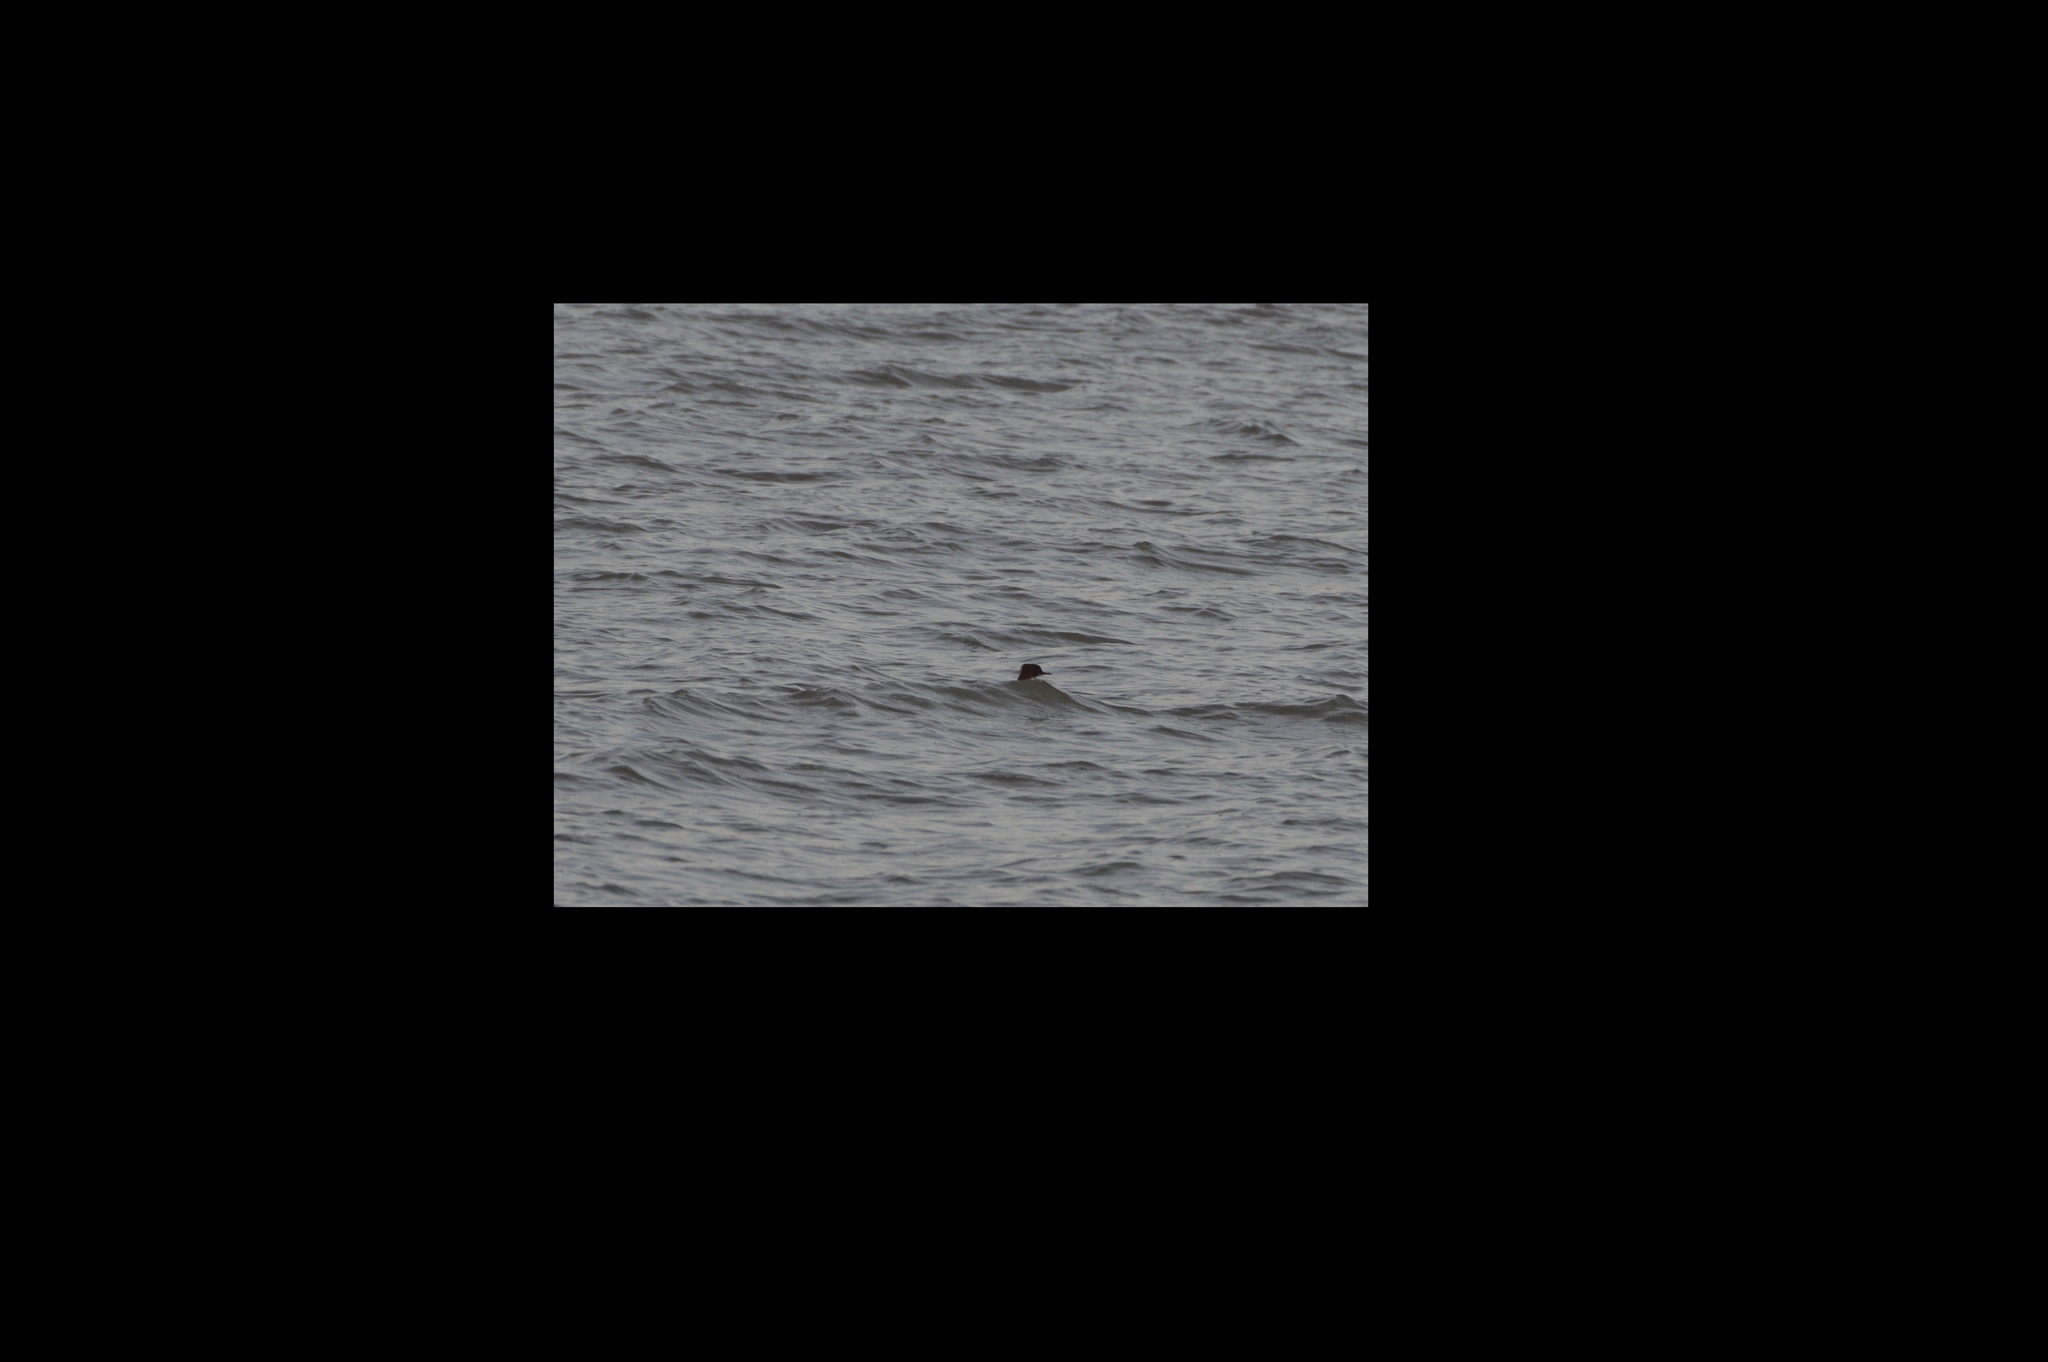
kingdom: Animalia
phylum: Chordata
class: Aves
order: Anseriformes
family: Anatidae
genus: Mergus
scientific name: Mergus merganser
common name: Common merganser
